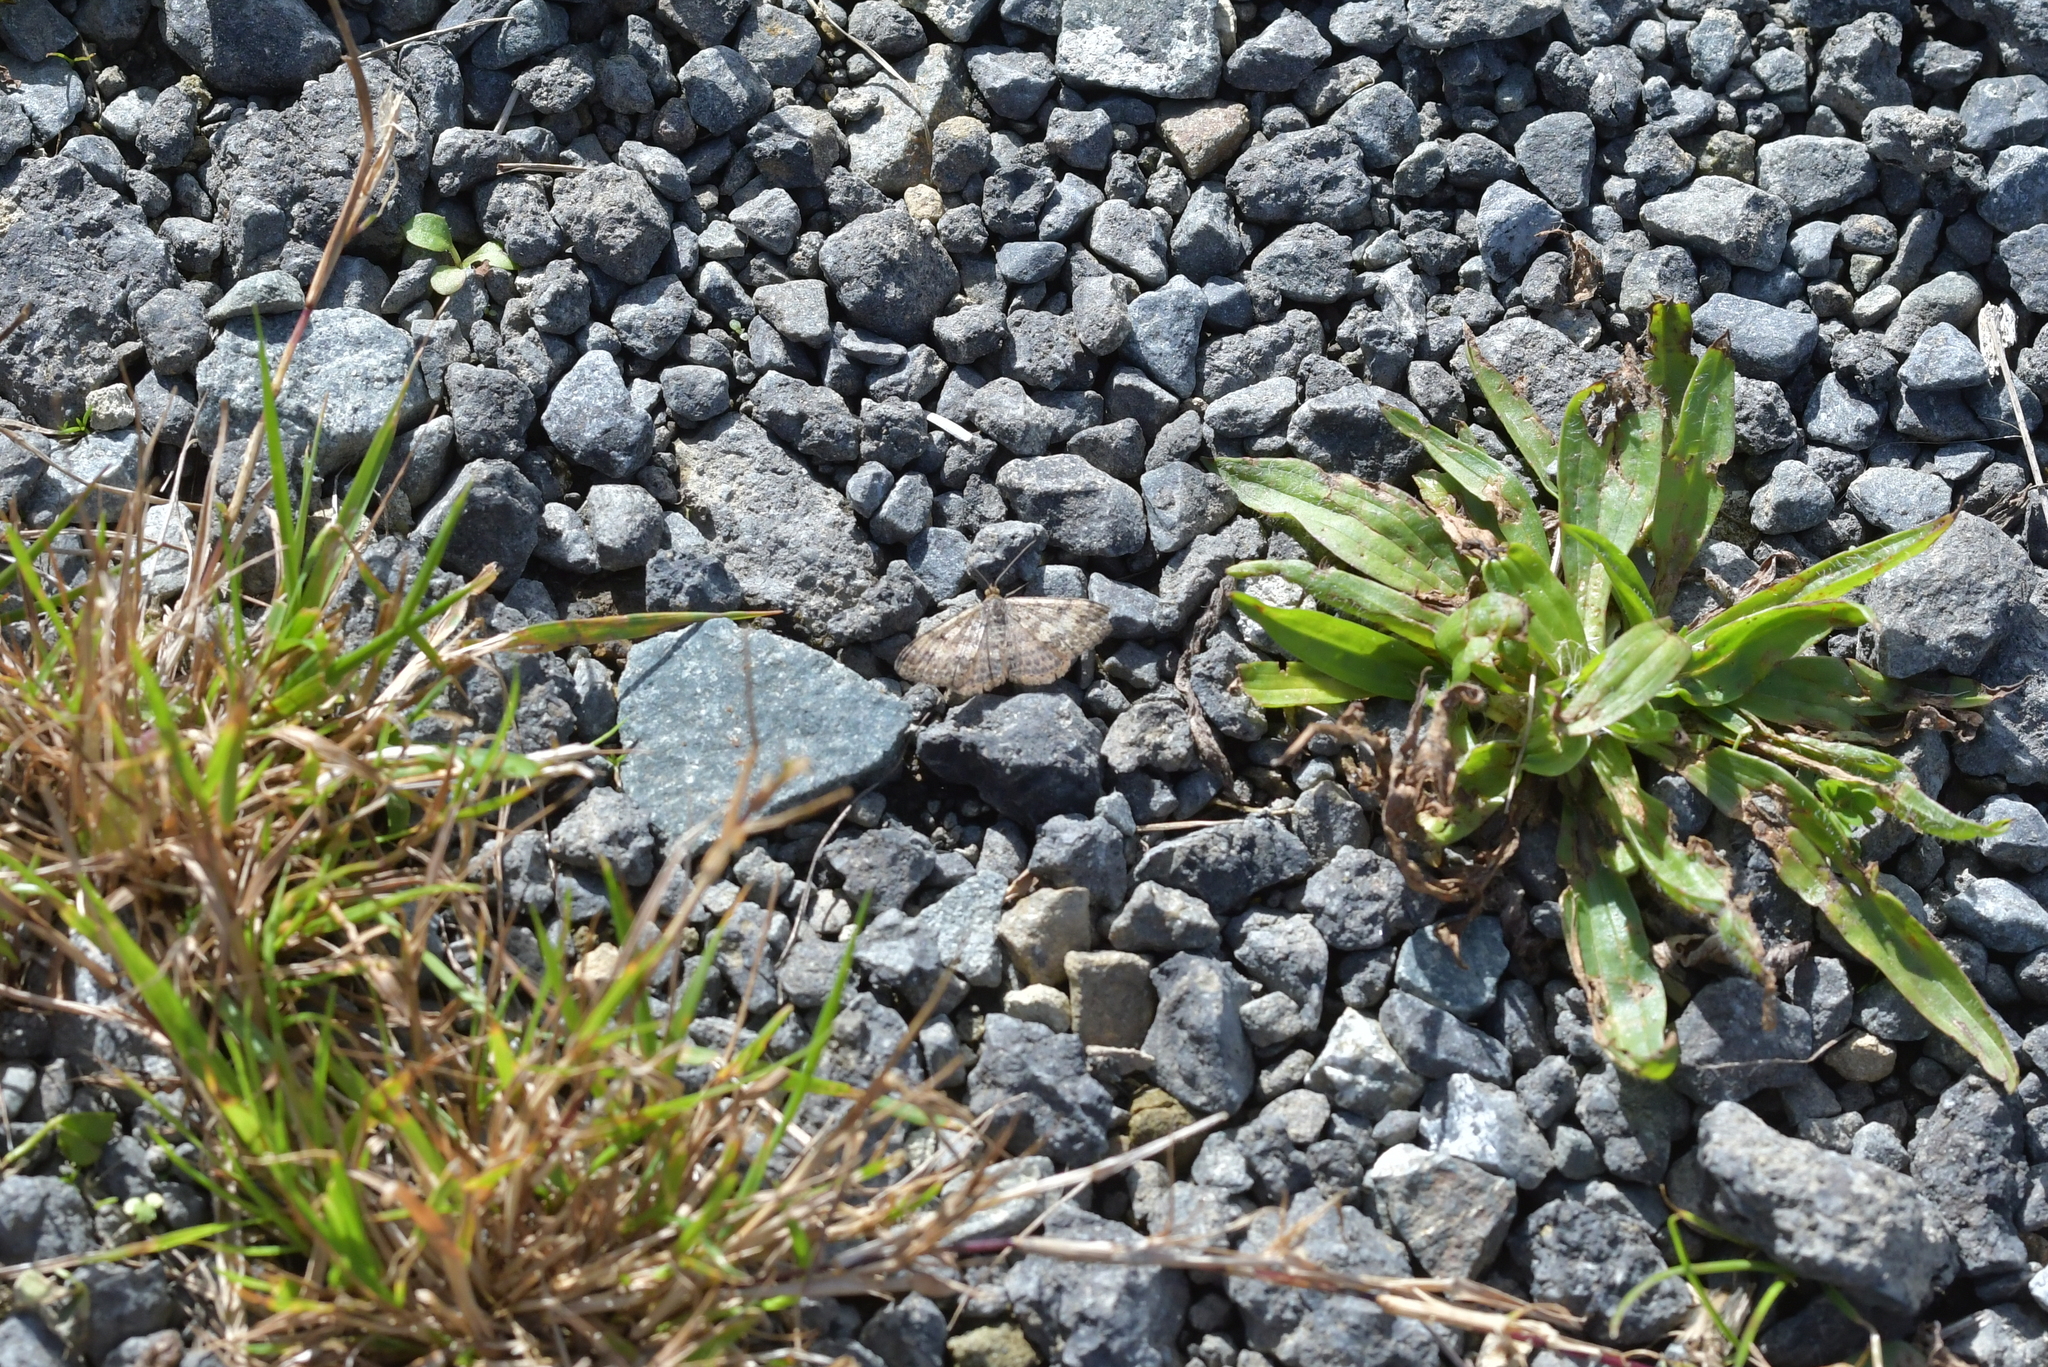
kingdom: Animalia
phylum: Arthropoda
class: Insecta
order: Lepidoptera
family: Geometridae
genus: Scopula
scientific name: Scopula rubraria
